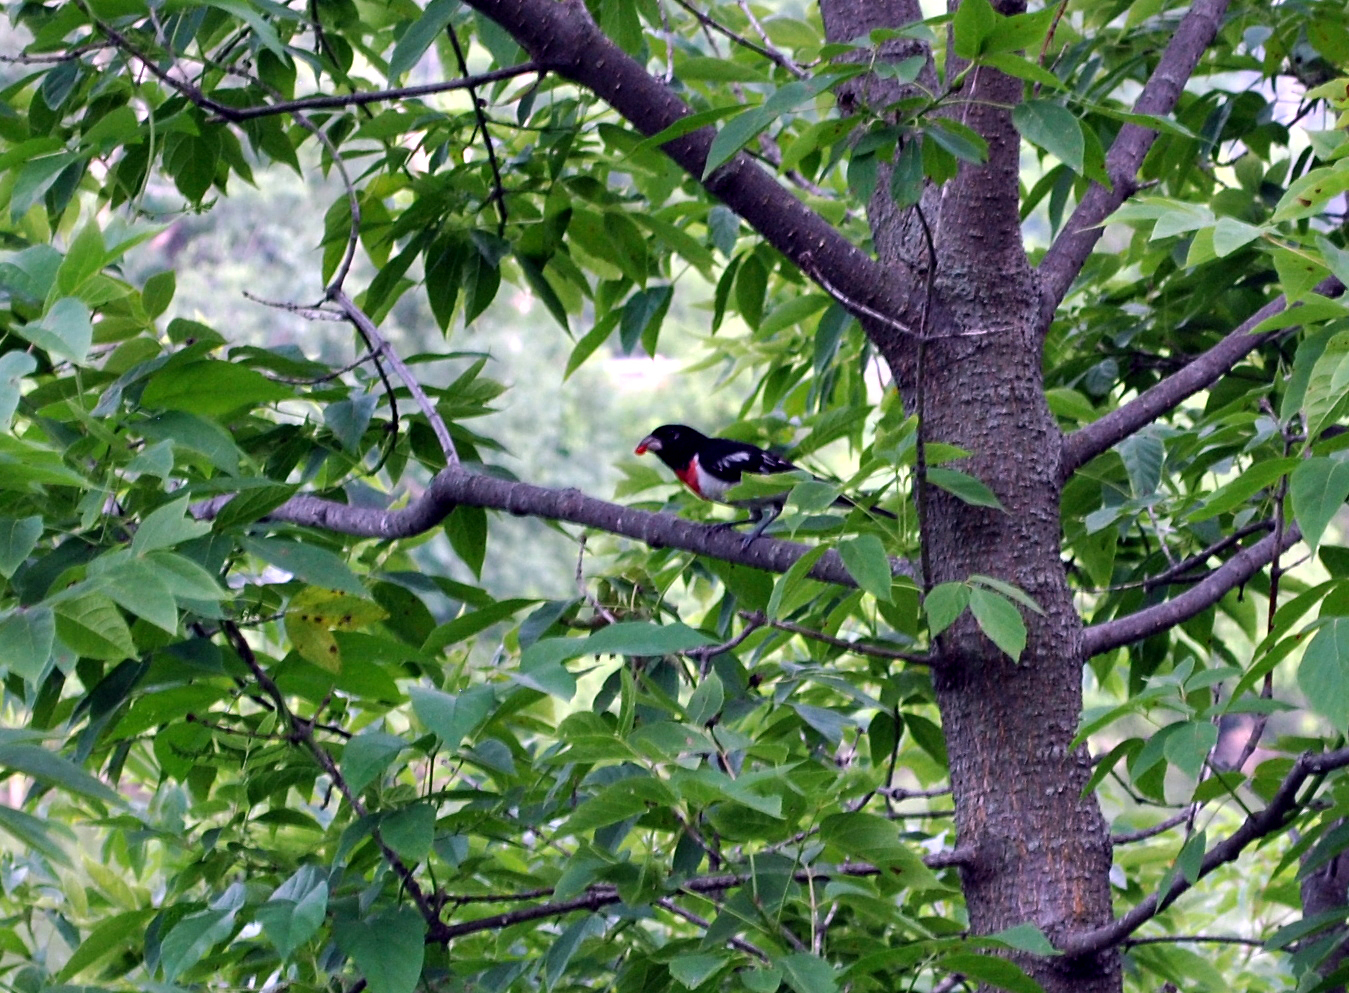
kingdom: Animalia
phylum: Chordata
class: Aves
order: Passeriformes
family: Cardinalidae
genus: Pheucticus
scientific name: Pheucticus ludovicianus
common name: Rose-breasted grosbeak
